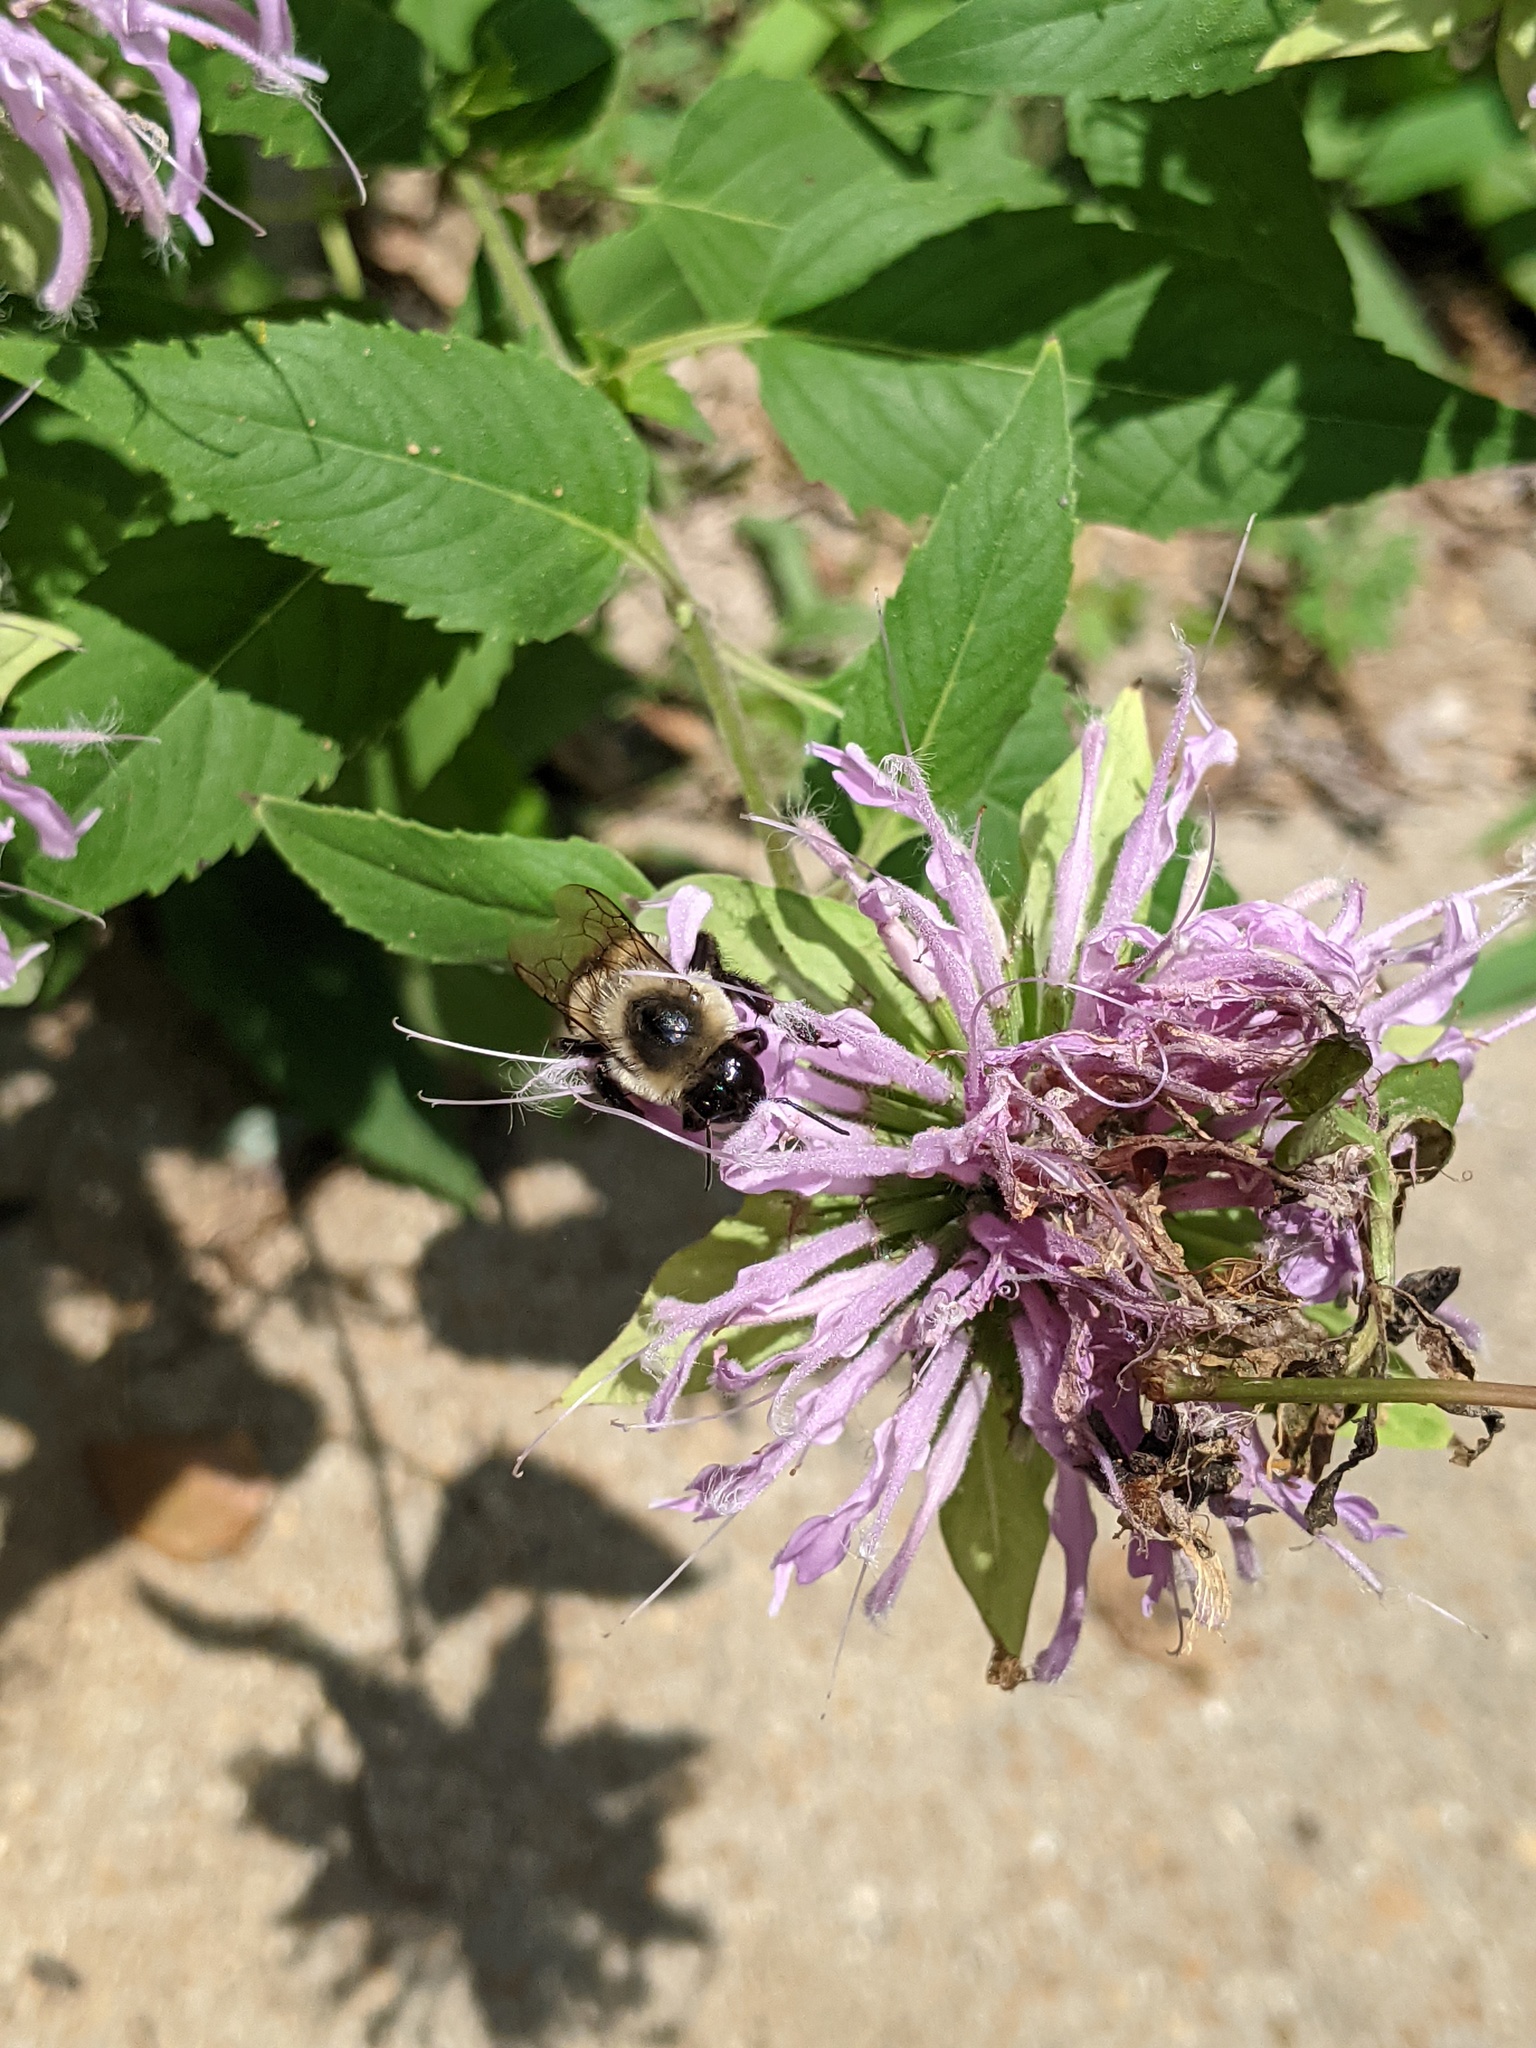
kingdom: Animalia
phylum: Arthropoda
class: Insecta
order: Hymenoptera
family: Apidae
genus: Bombus
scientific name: Bombus impatiens
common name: Common eastern bumble bee
